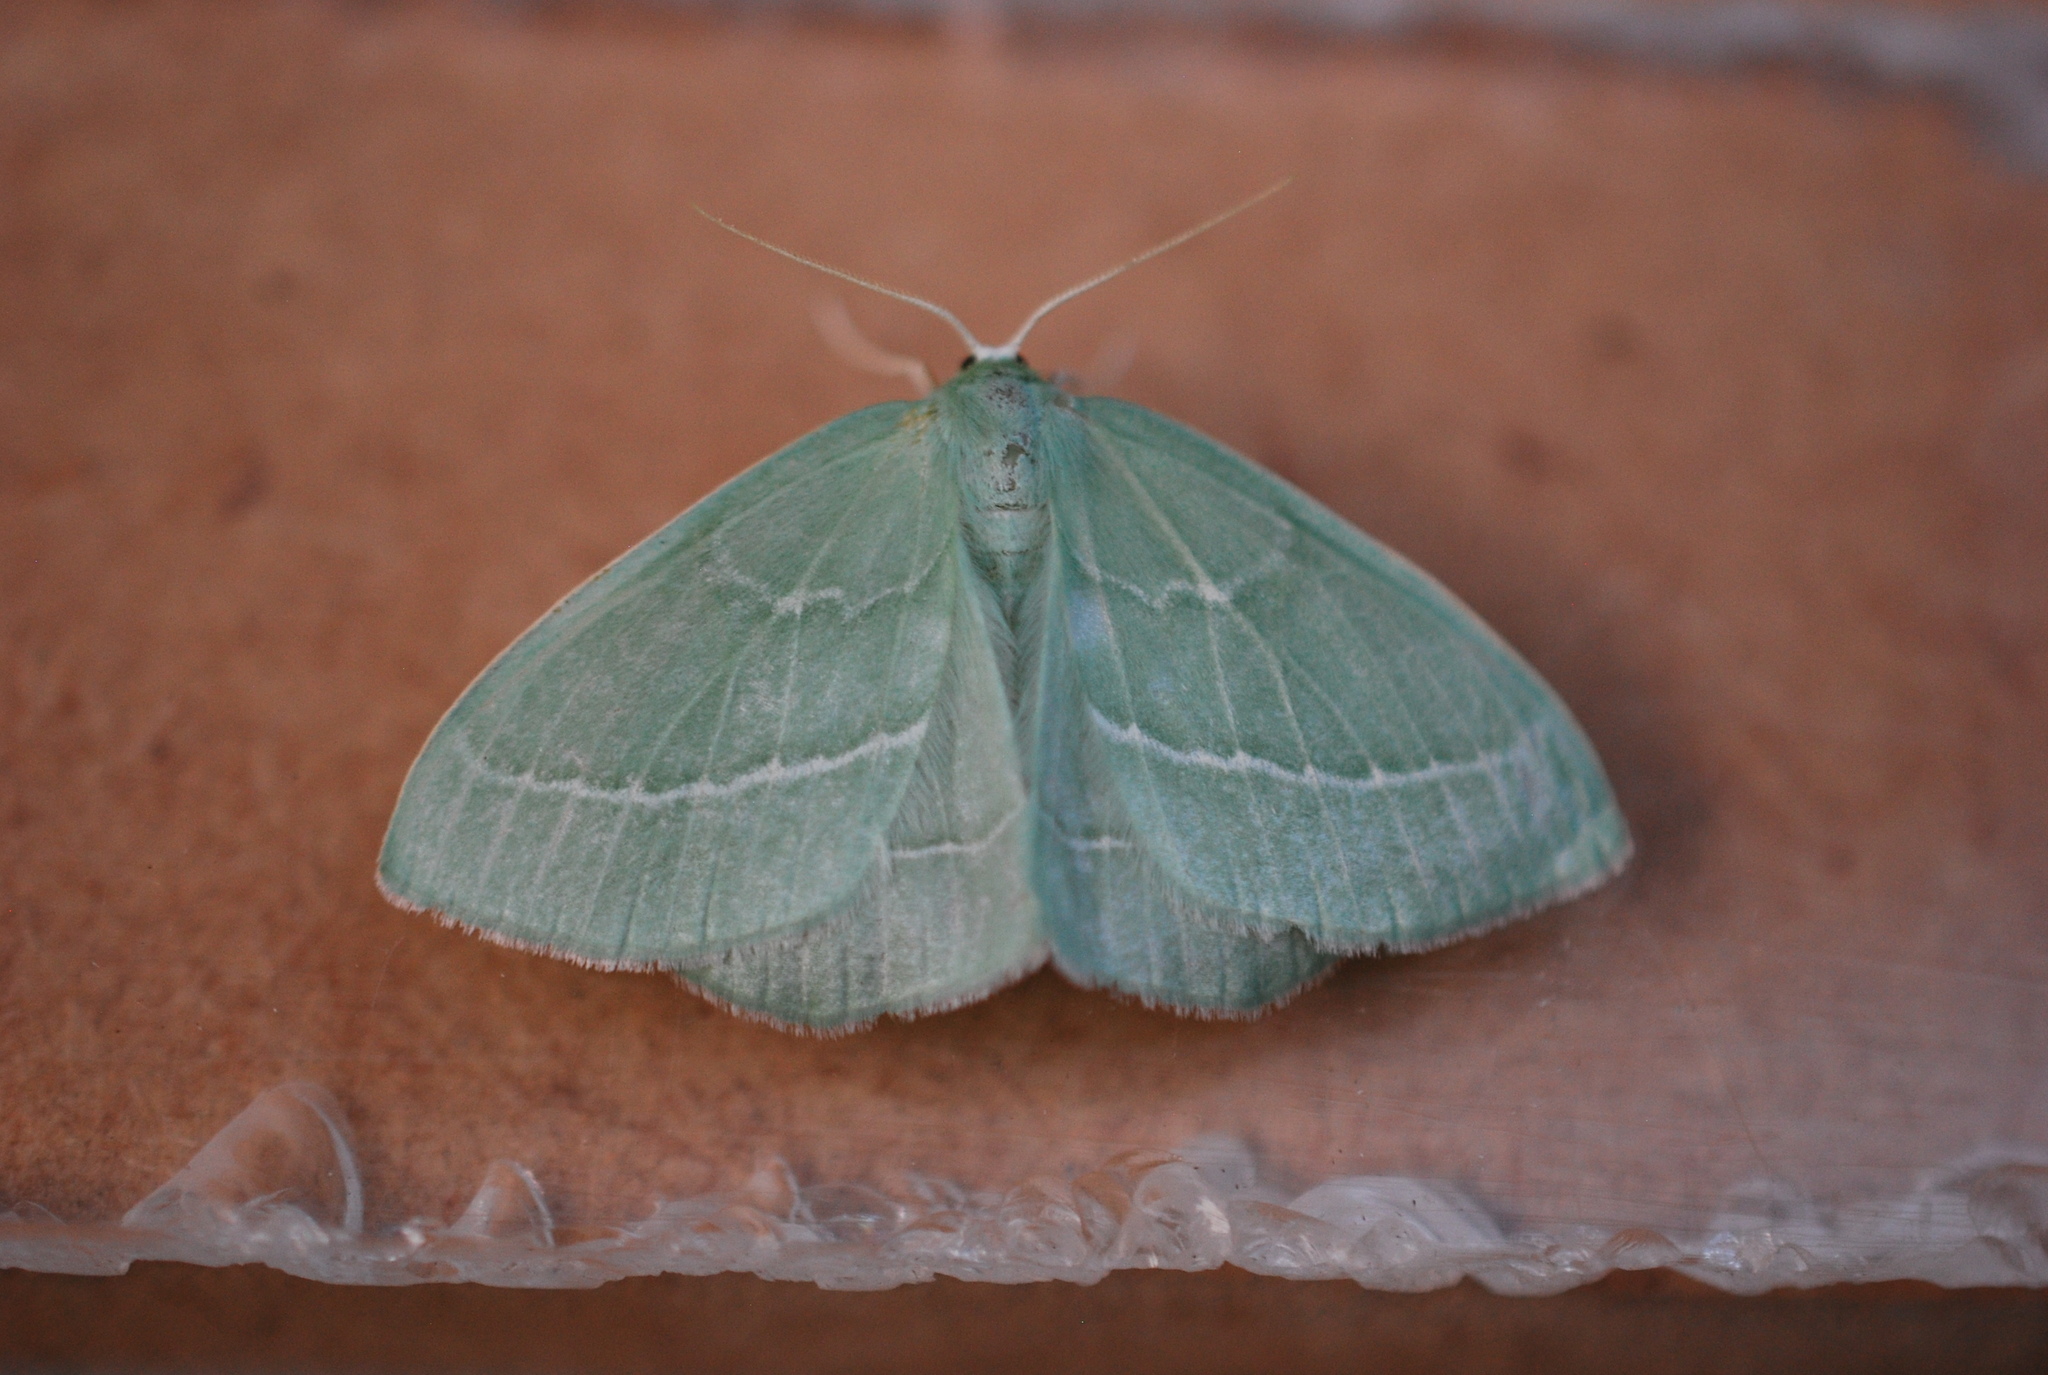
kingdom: Animalia
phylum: Arthropoda
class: Insecta
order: Lepidoptera
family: Geometridae
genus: Hemistola
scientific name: Hemistola chrysoprasaria
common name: Small emerald
